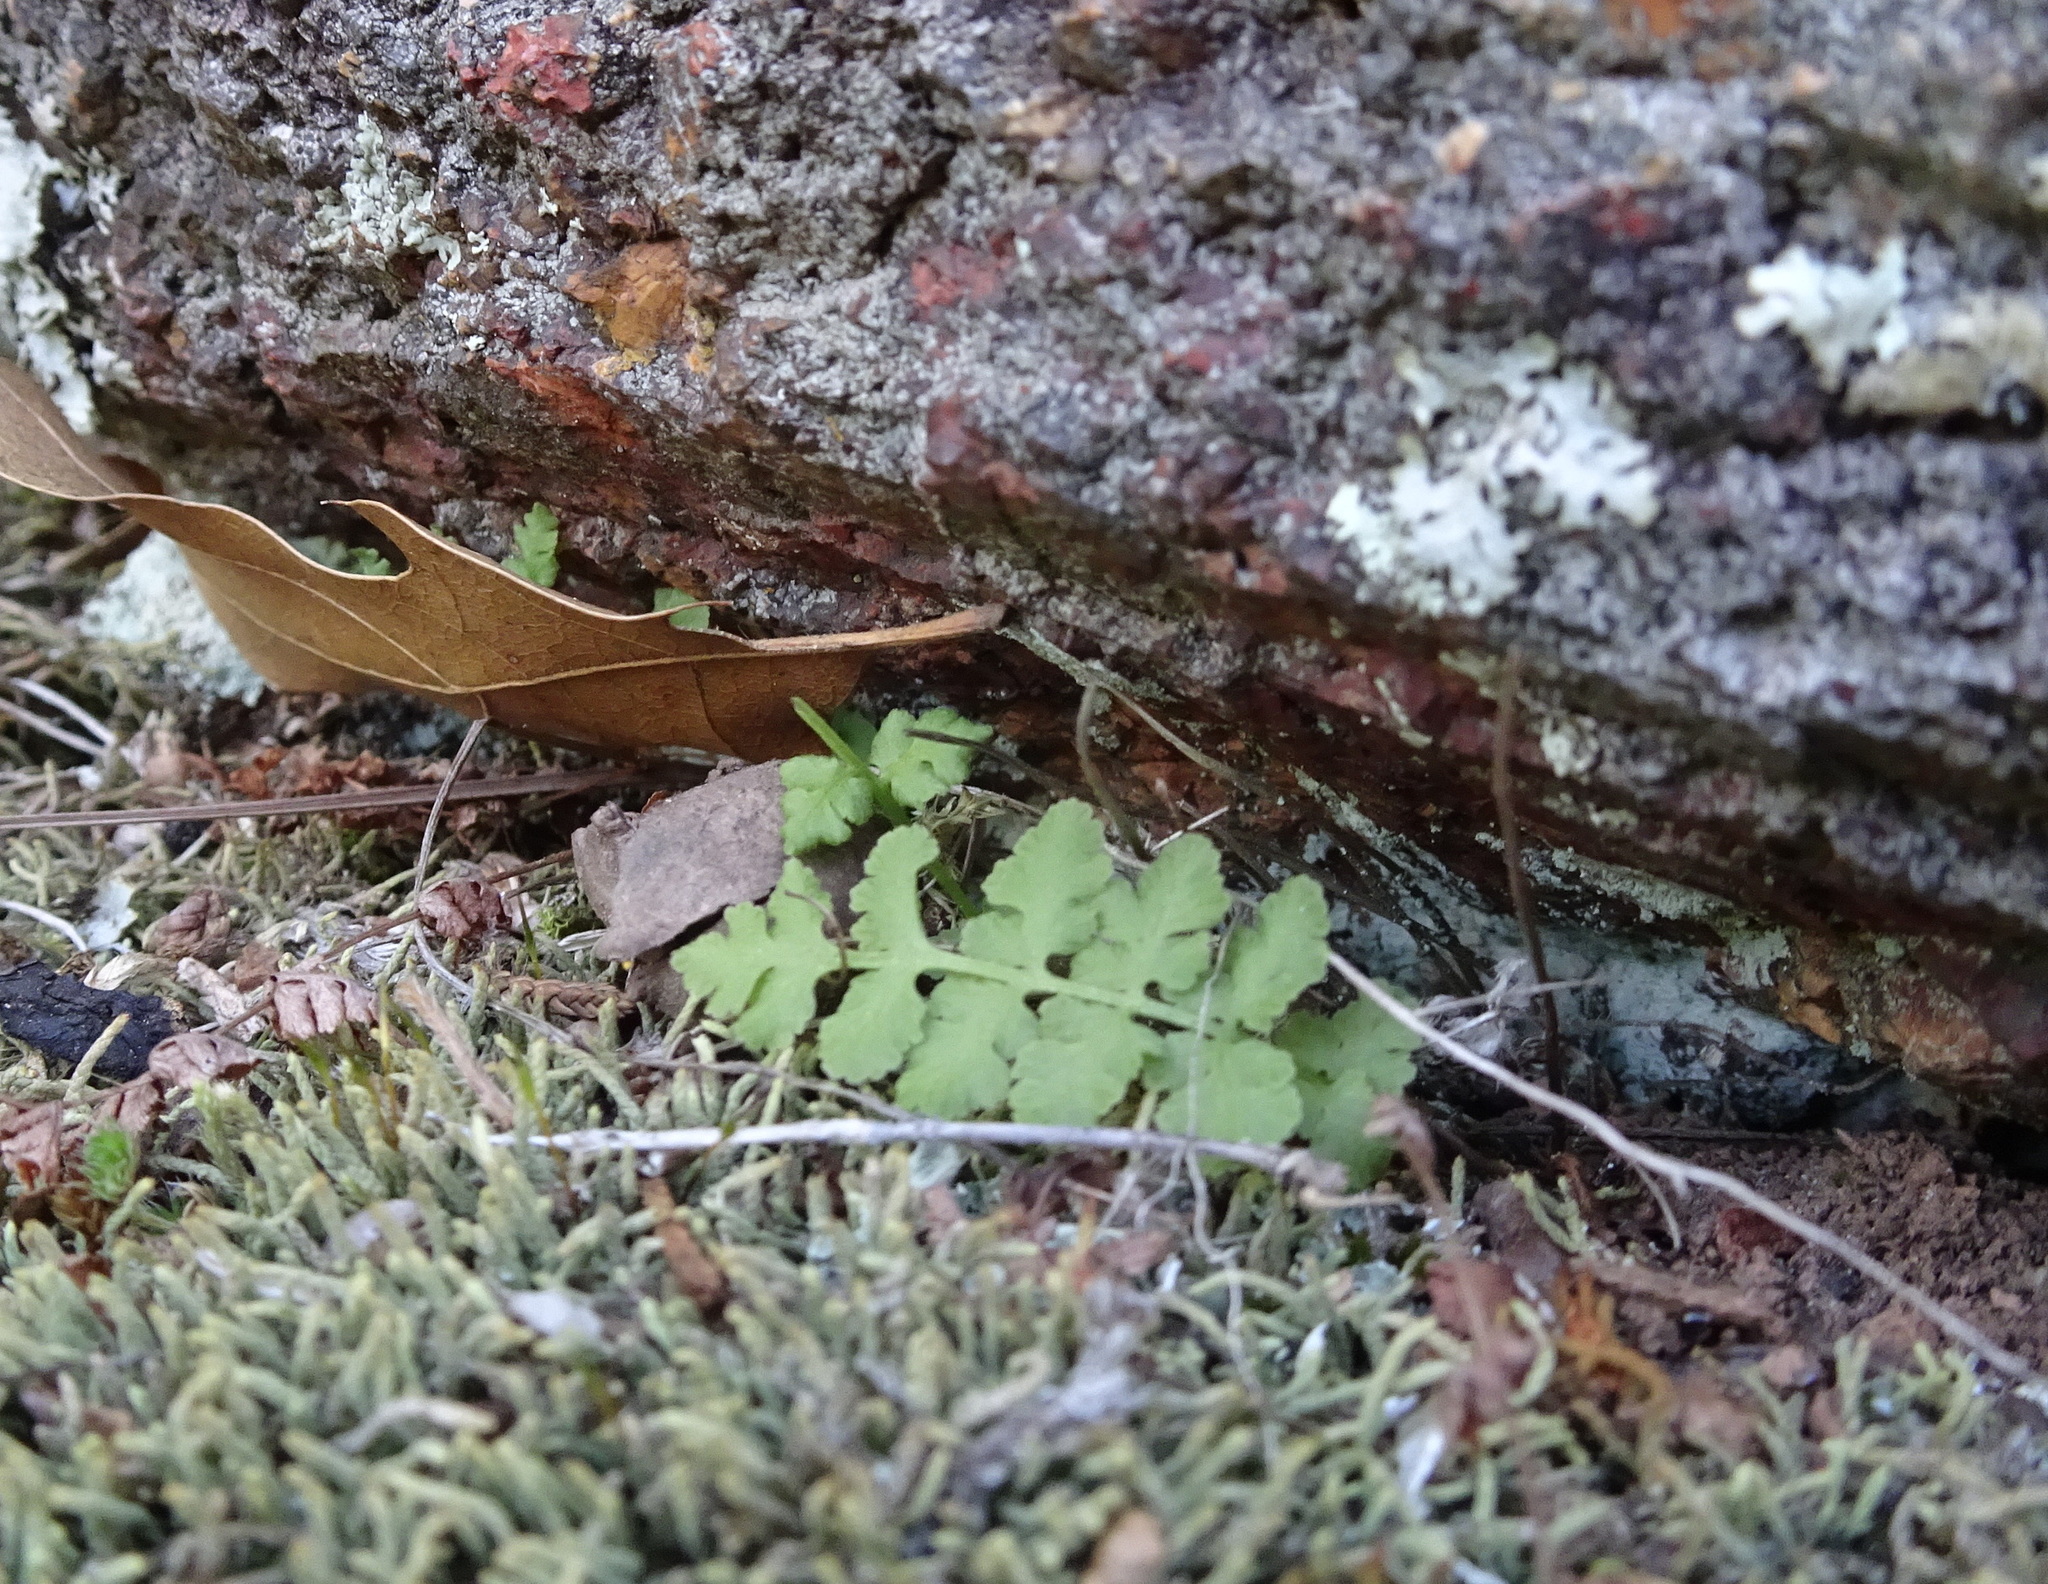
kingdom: Plantae
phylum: Tracheophyta
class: Polypodiopsida
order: Polypodiales
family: Woodsiaceae
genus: Physematium
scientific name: Physematium obtusum
